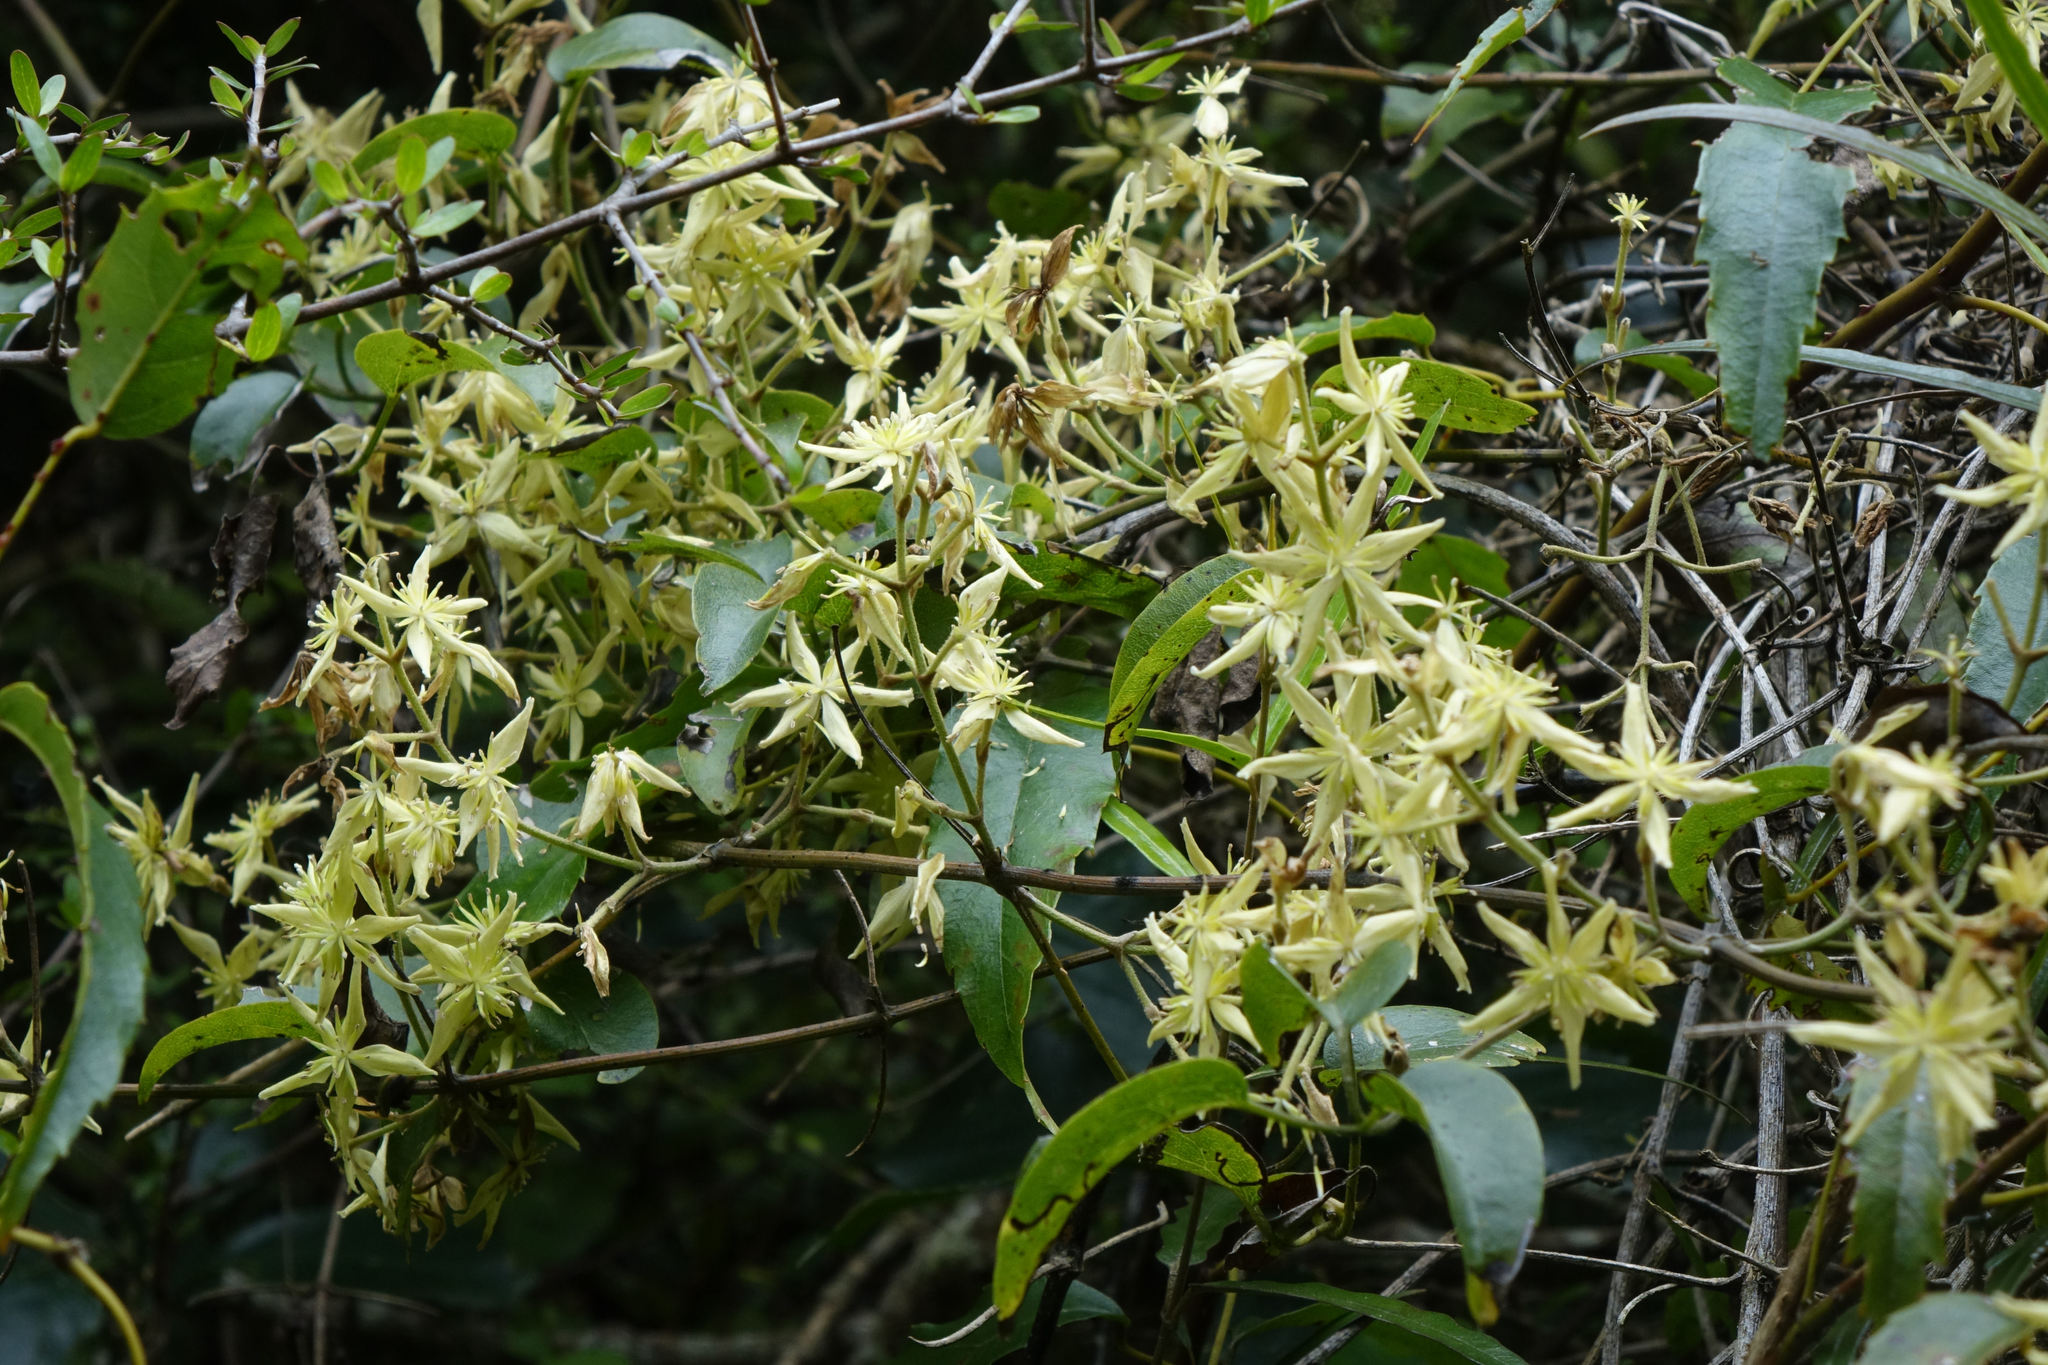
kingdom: Plantae
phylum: Tracheophyta
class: Magnoliopsida
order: Ranunculales
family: Ranunculaceae
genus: Clematis
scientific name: Clematis foetida
